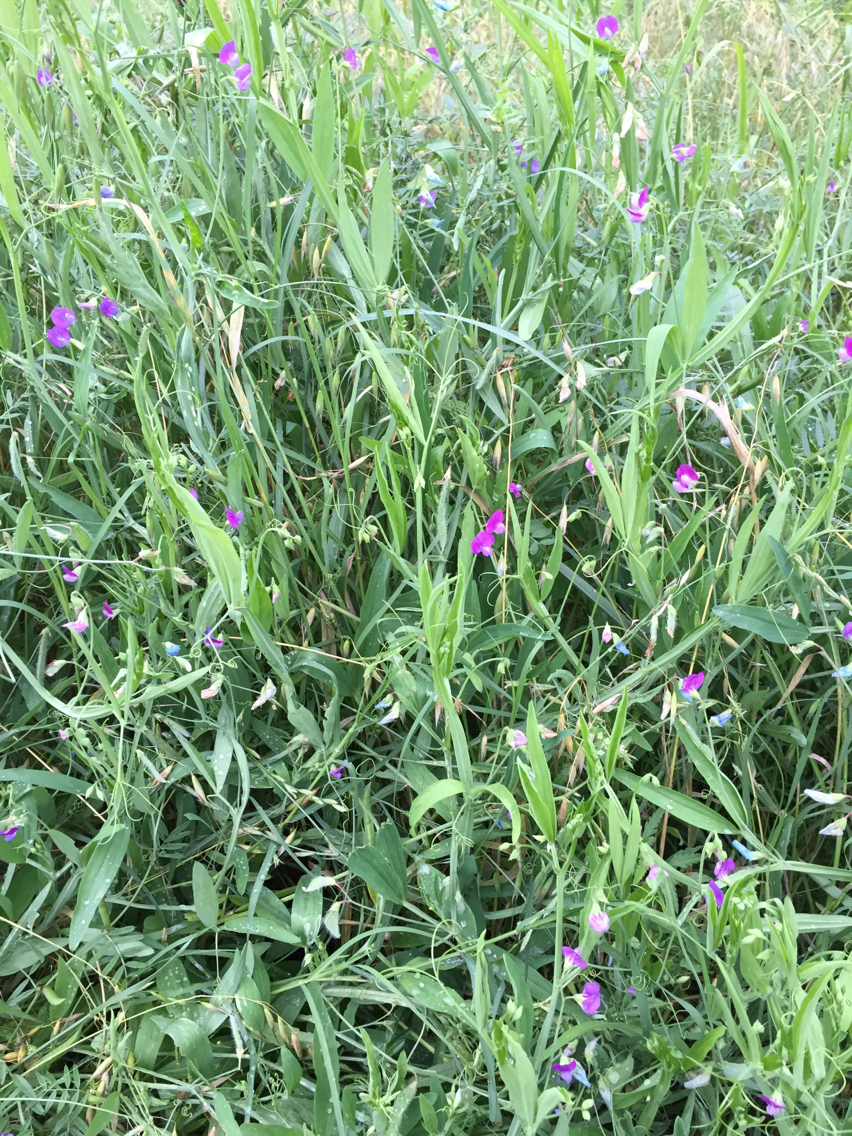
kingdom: Plantae
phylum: Tracheophyta
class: Magnoliopsida
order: Fabales
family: Fabaceae
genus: Lathyrus
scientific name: Lathyrus hirsutus
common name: Hairy vetchling
